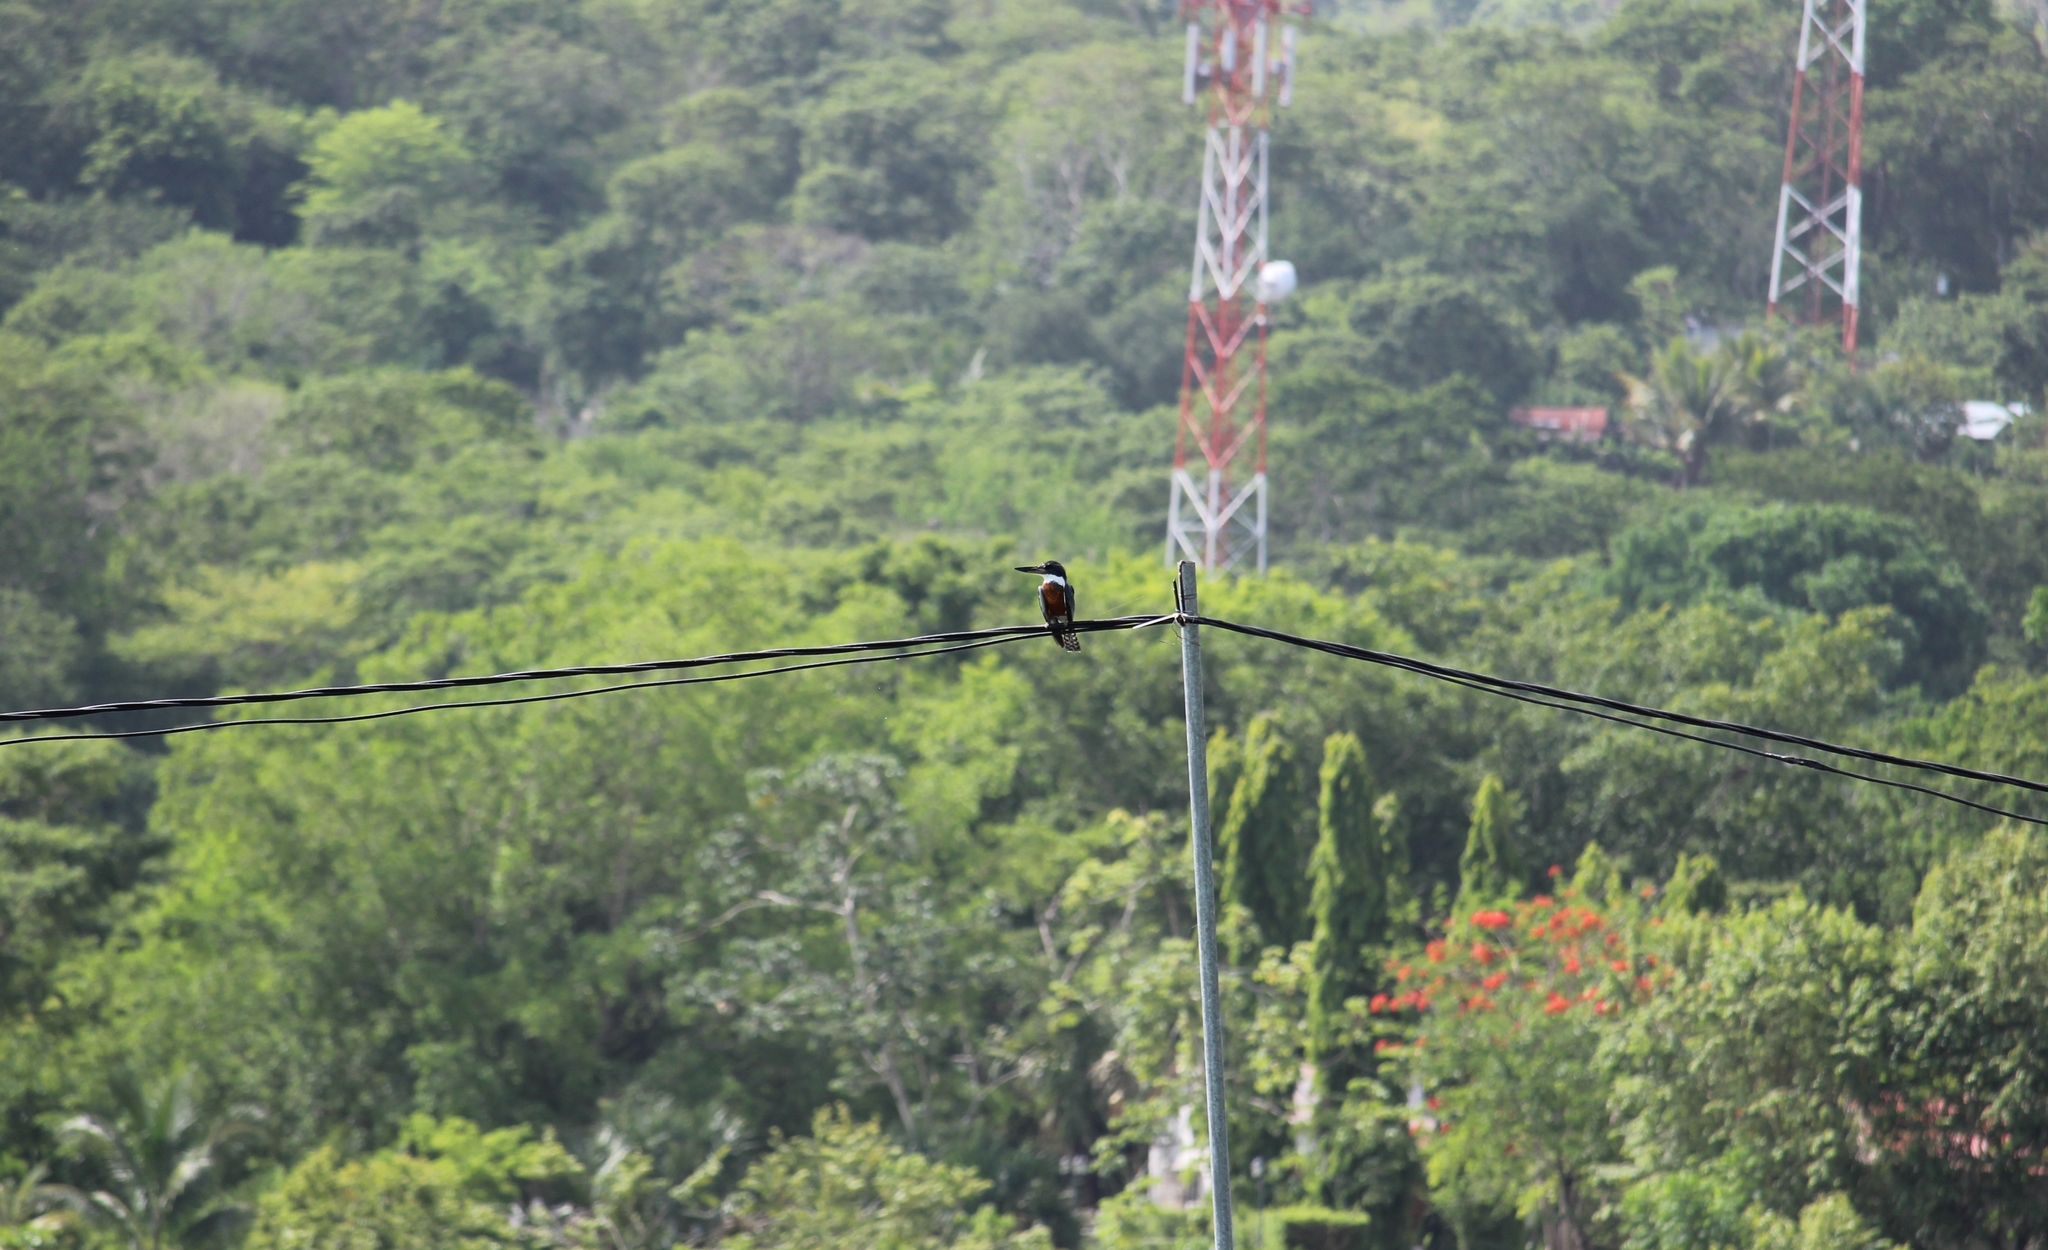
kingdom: Animalia
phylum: Chordata
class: Aves
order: Coraciiformes
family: Alcedinidae
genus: Megaceryle
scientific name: Megaceryle torquata
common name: Ringed kingfisher
